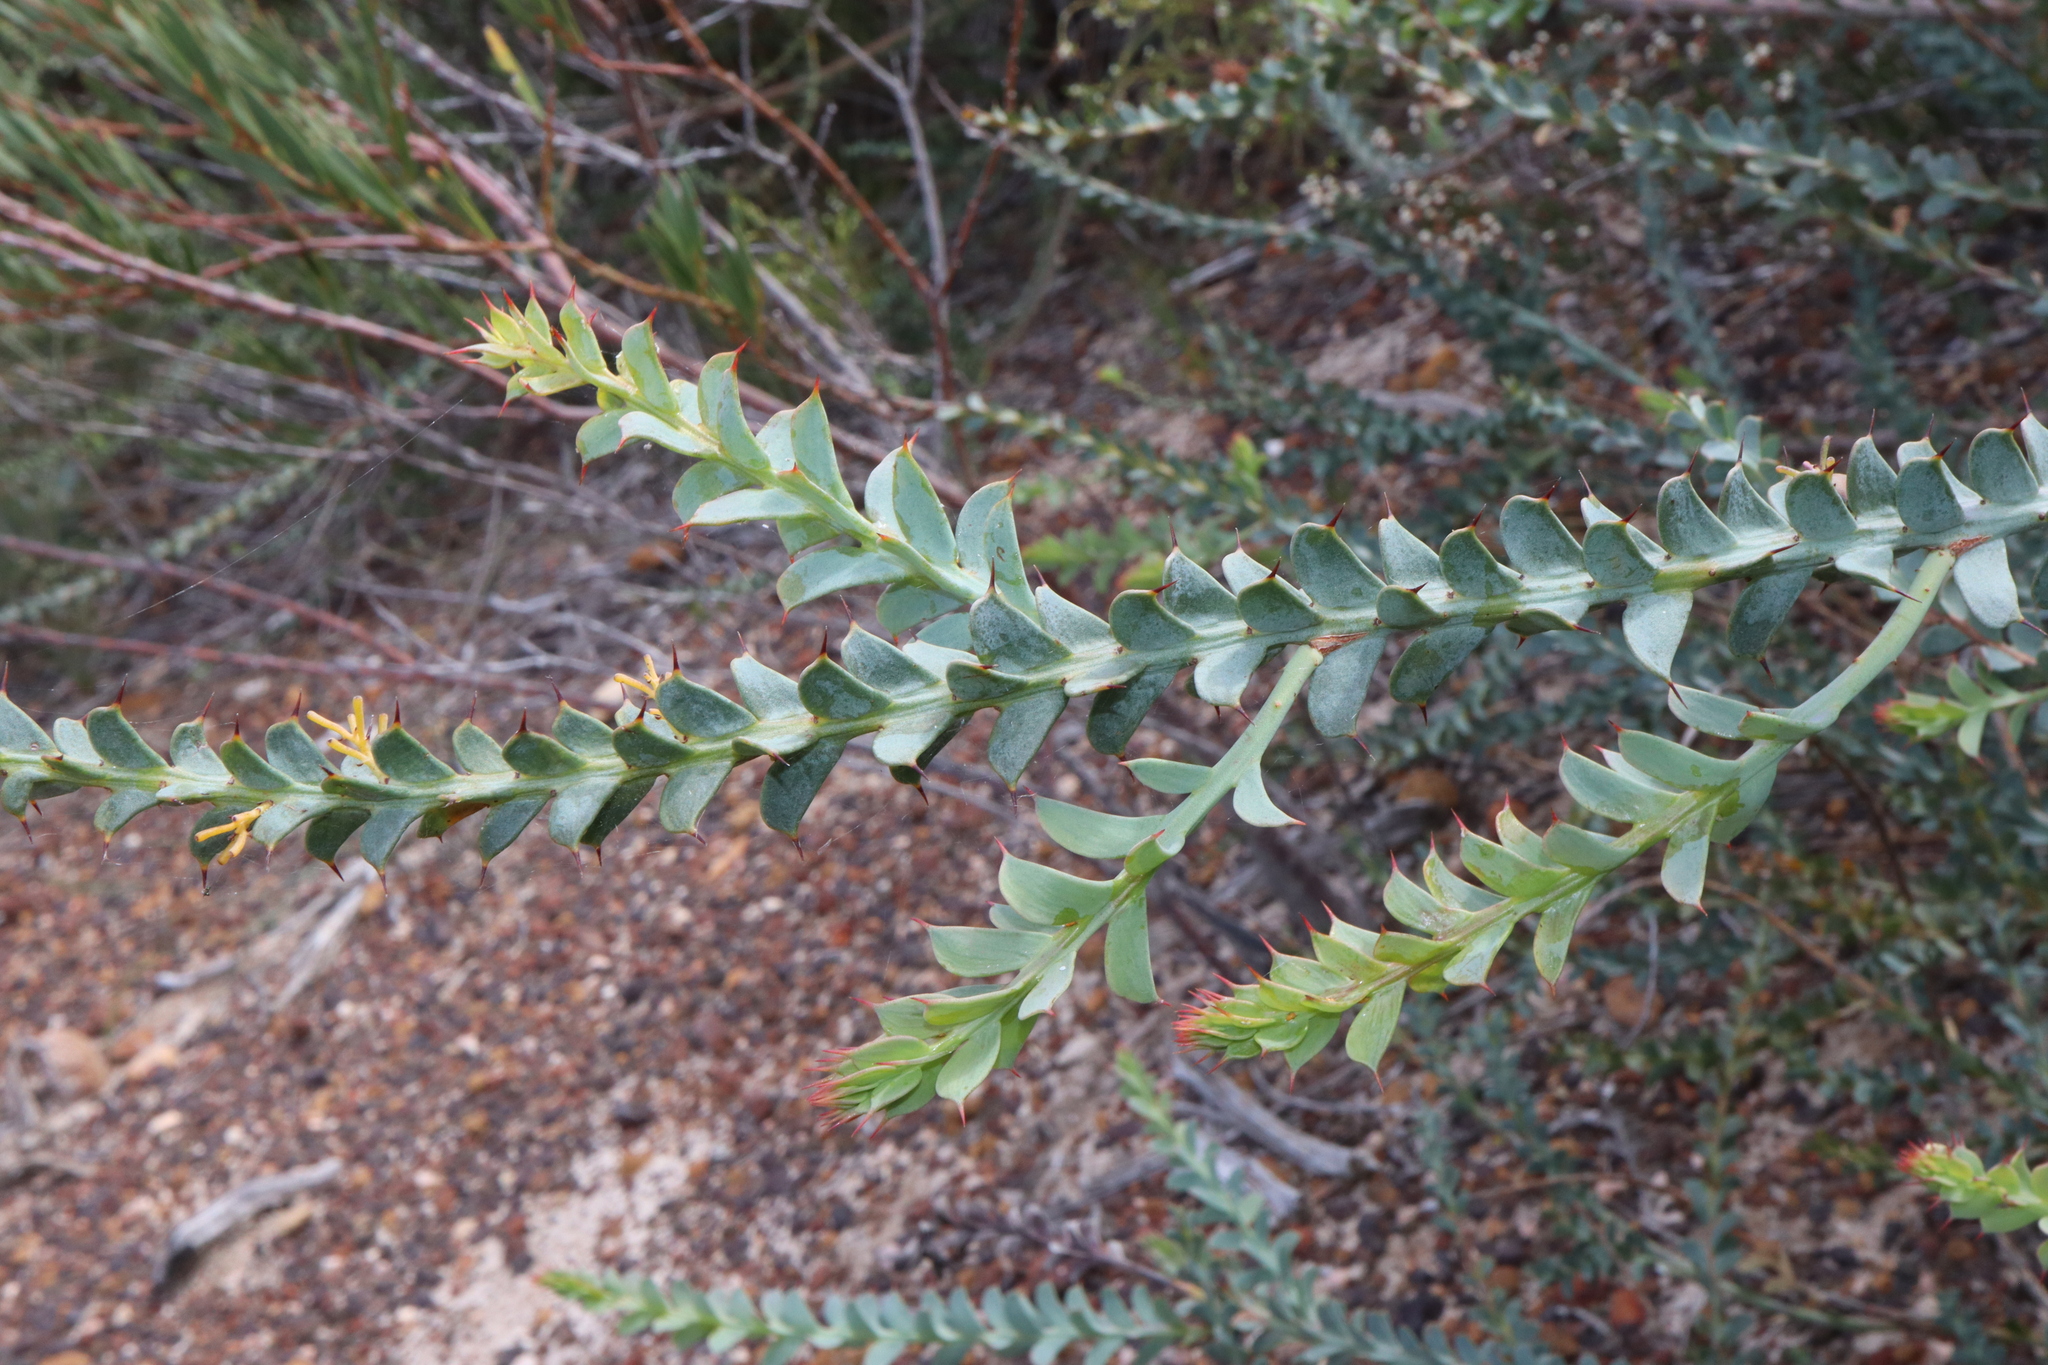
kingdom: Plantae
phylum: Tracheophyta
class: Magnoliopsida
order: Fabales
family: Fabaceae
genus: Daviesia
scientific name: Daviesia striata
